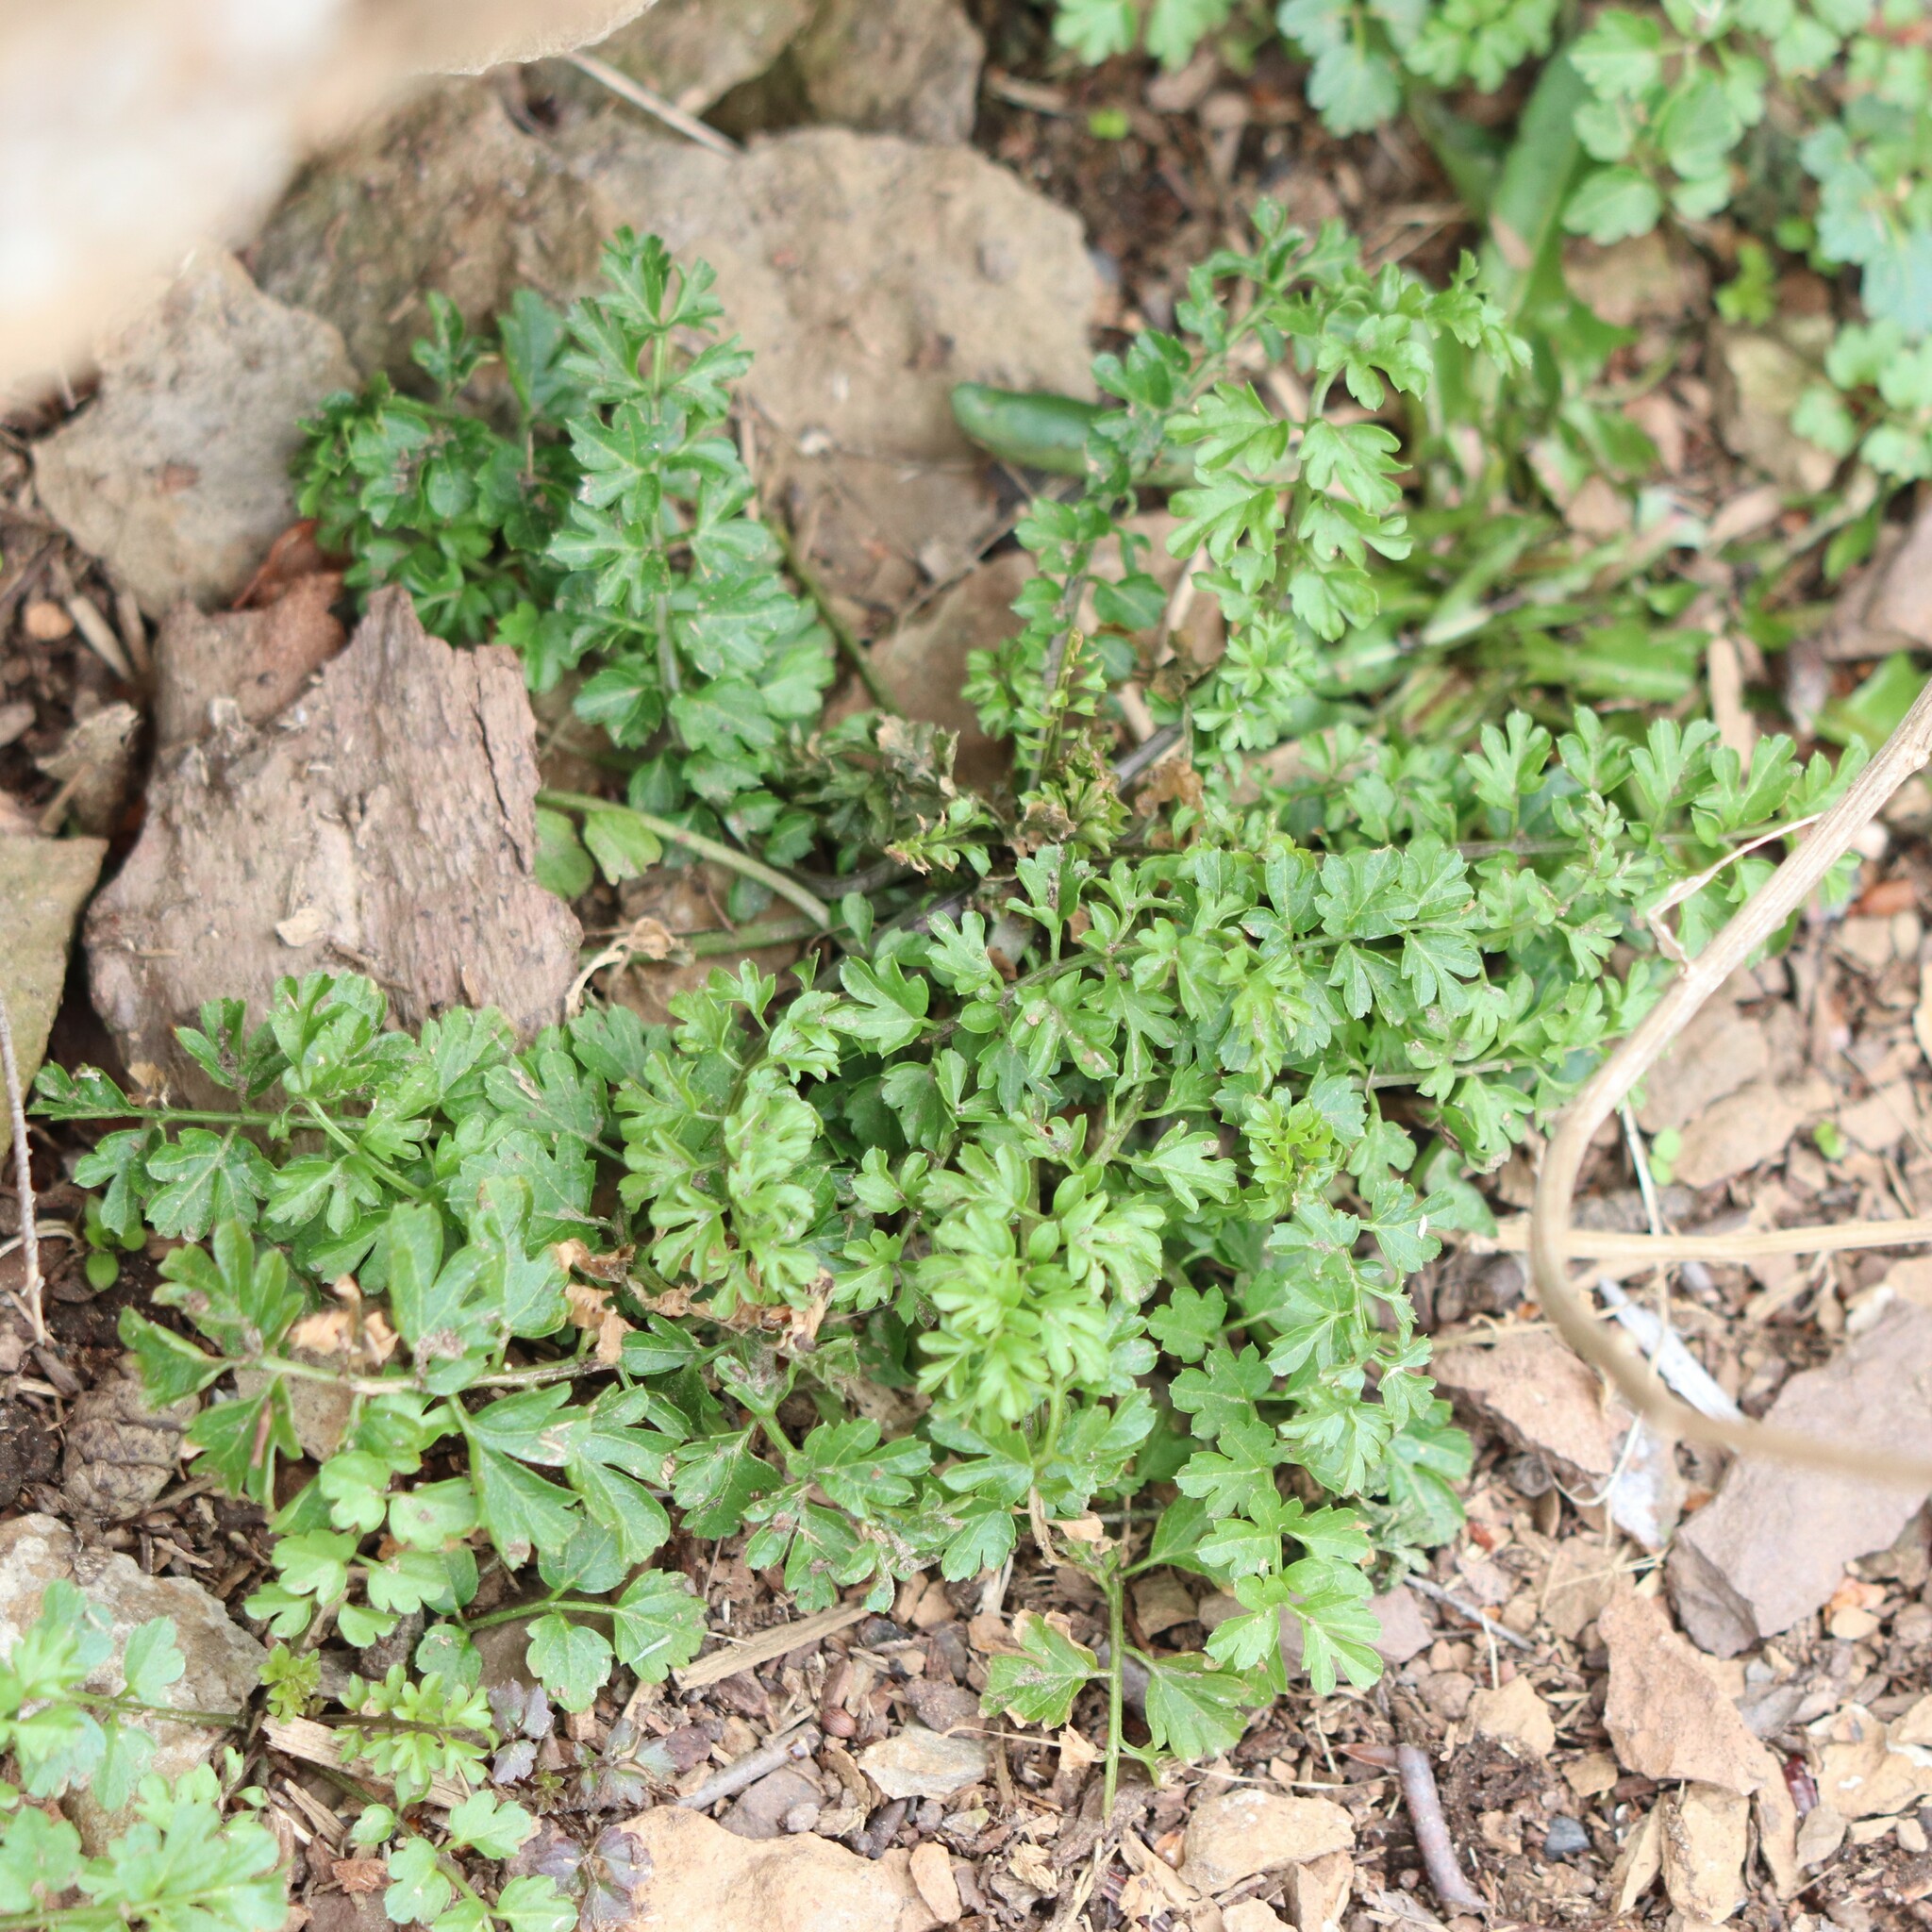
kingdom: Plantae
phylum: Tracheophyta
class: Magnoliopsida
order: Brassicales
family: Brassicaceae
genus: Cardamine
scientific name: Cardamine impatiens
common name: Narrow-leaved bitter-cress
